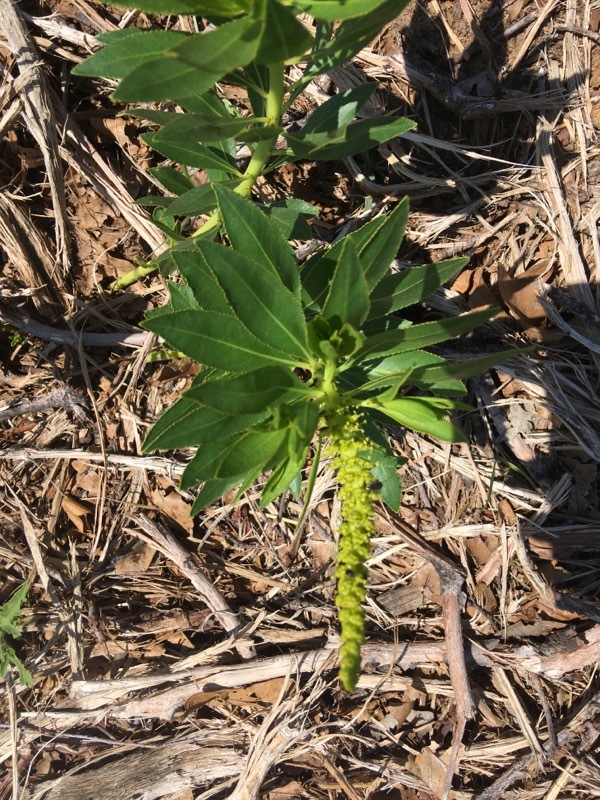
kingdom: Plantae
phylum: Tracheophyta
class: Magnoliopsida
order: Malpighiales
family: Euphorbiaceae
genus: Stillingia
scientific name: Stillingia sylvatica
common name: Queen's-delight
